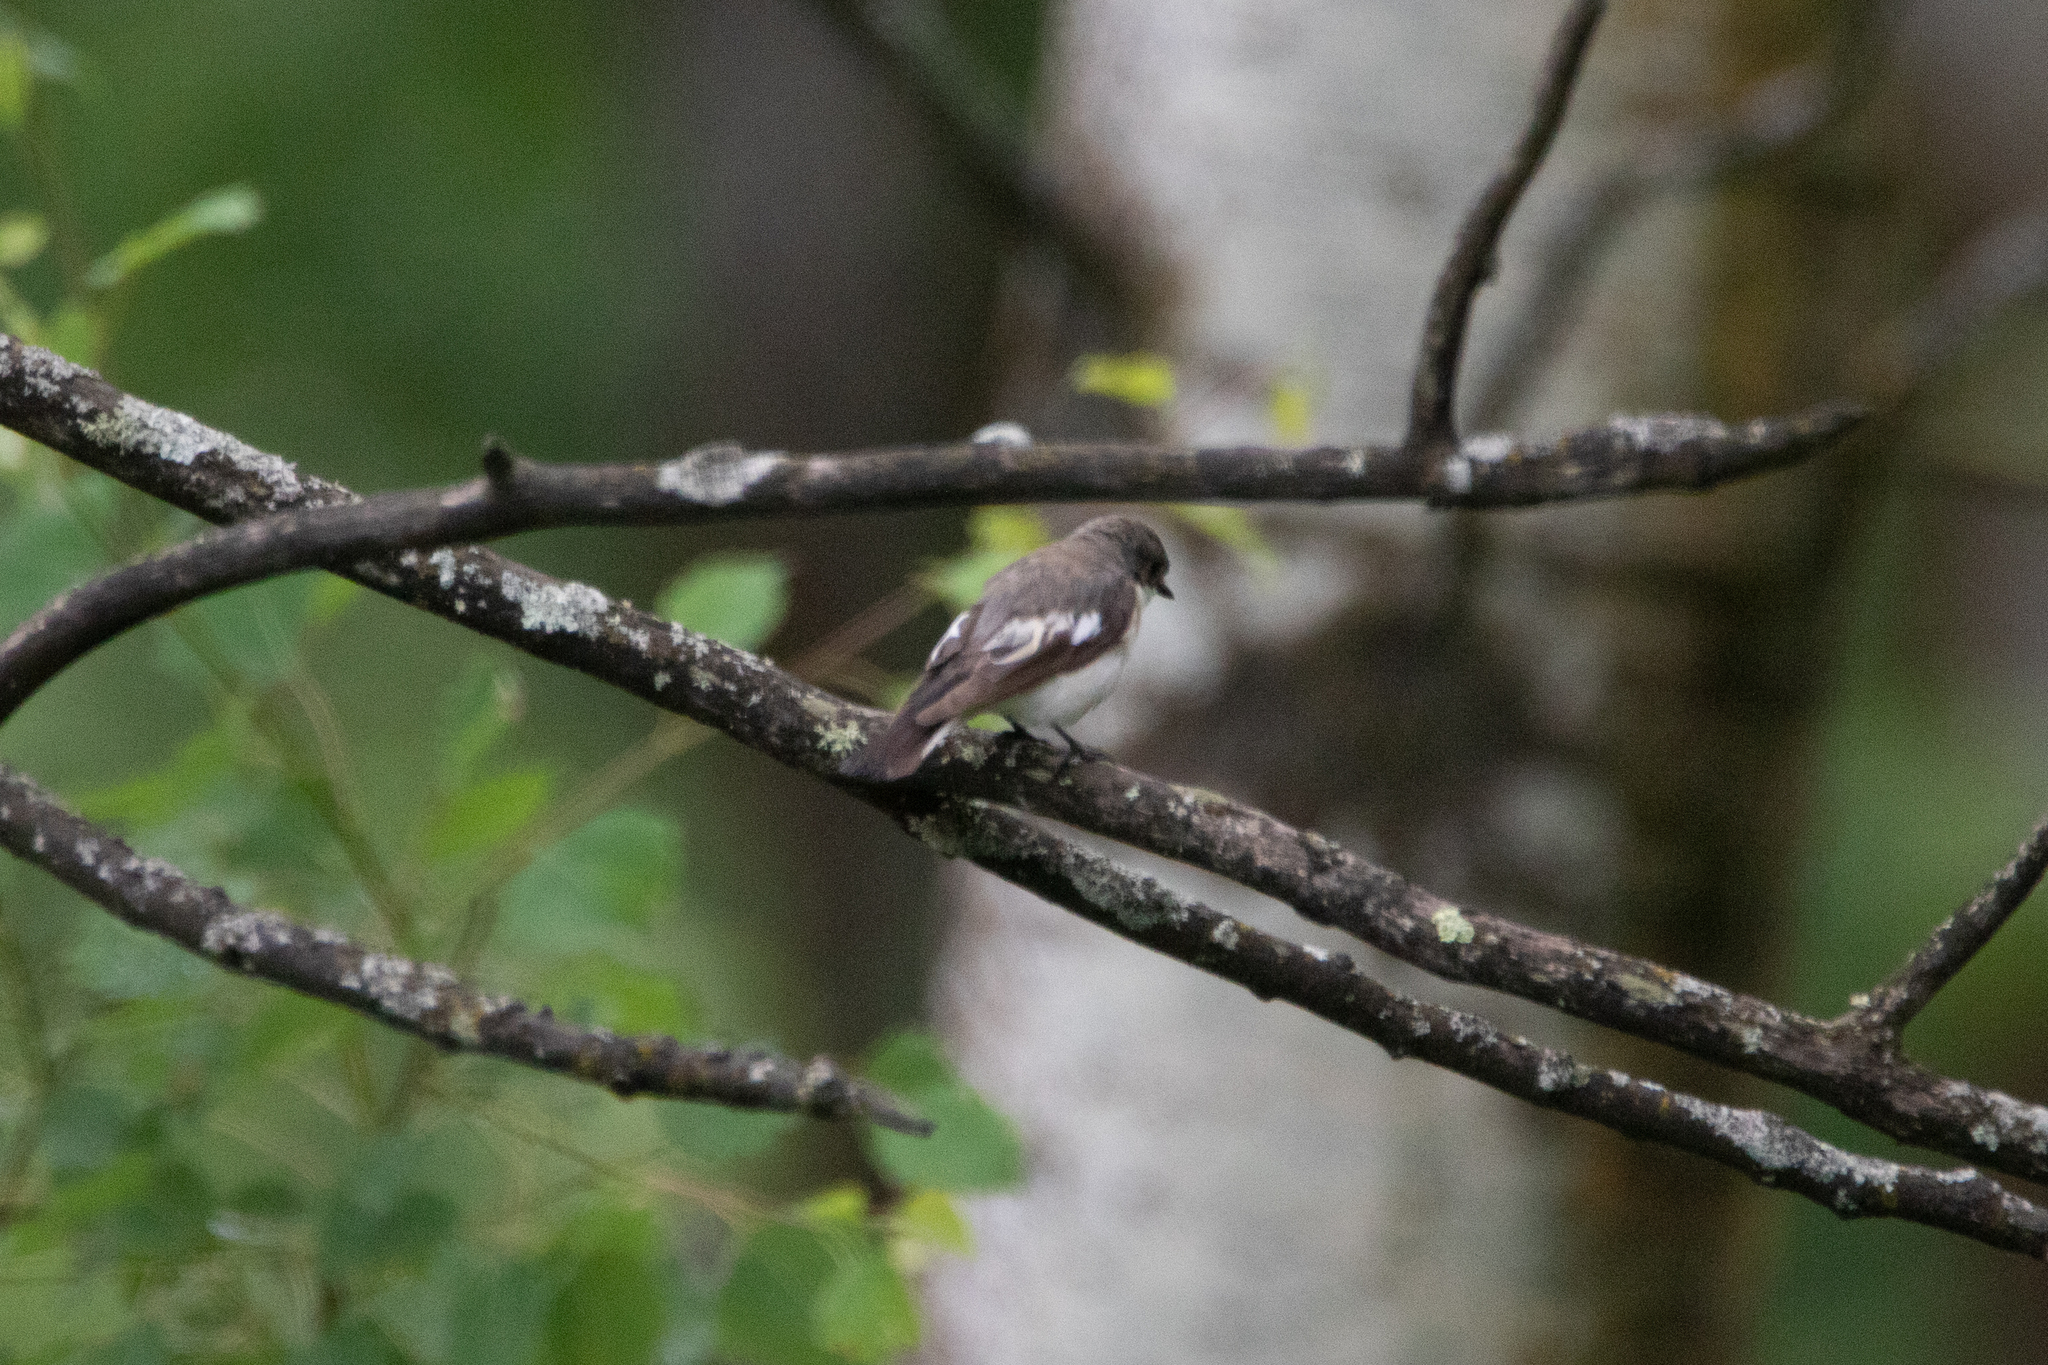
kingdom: Animalia
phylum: Chordata
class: Aves
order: Passeriformes
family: Muscicapidae
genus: Ficedula
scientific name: Ficedula hypoleuca
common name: European pied flycatcher
